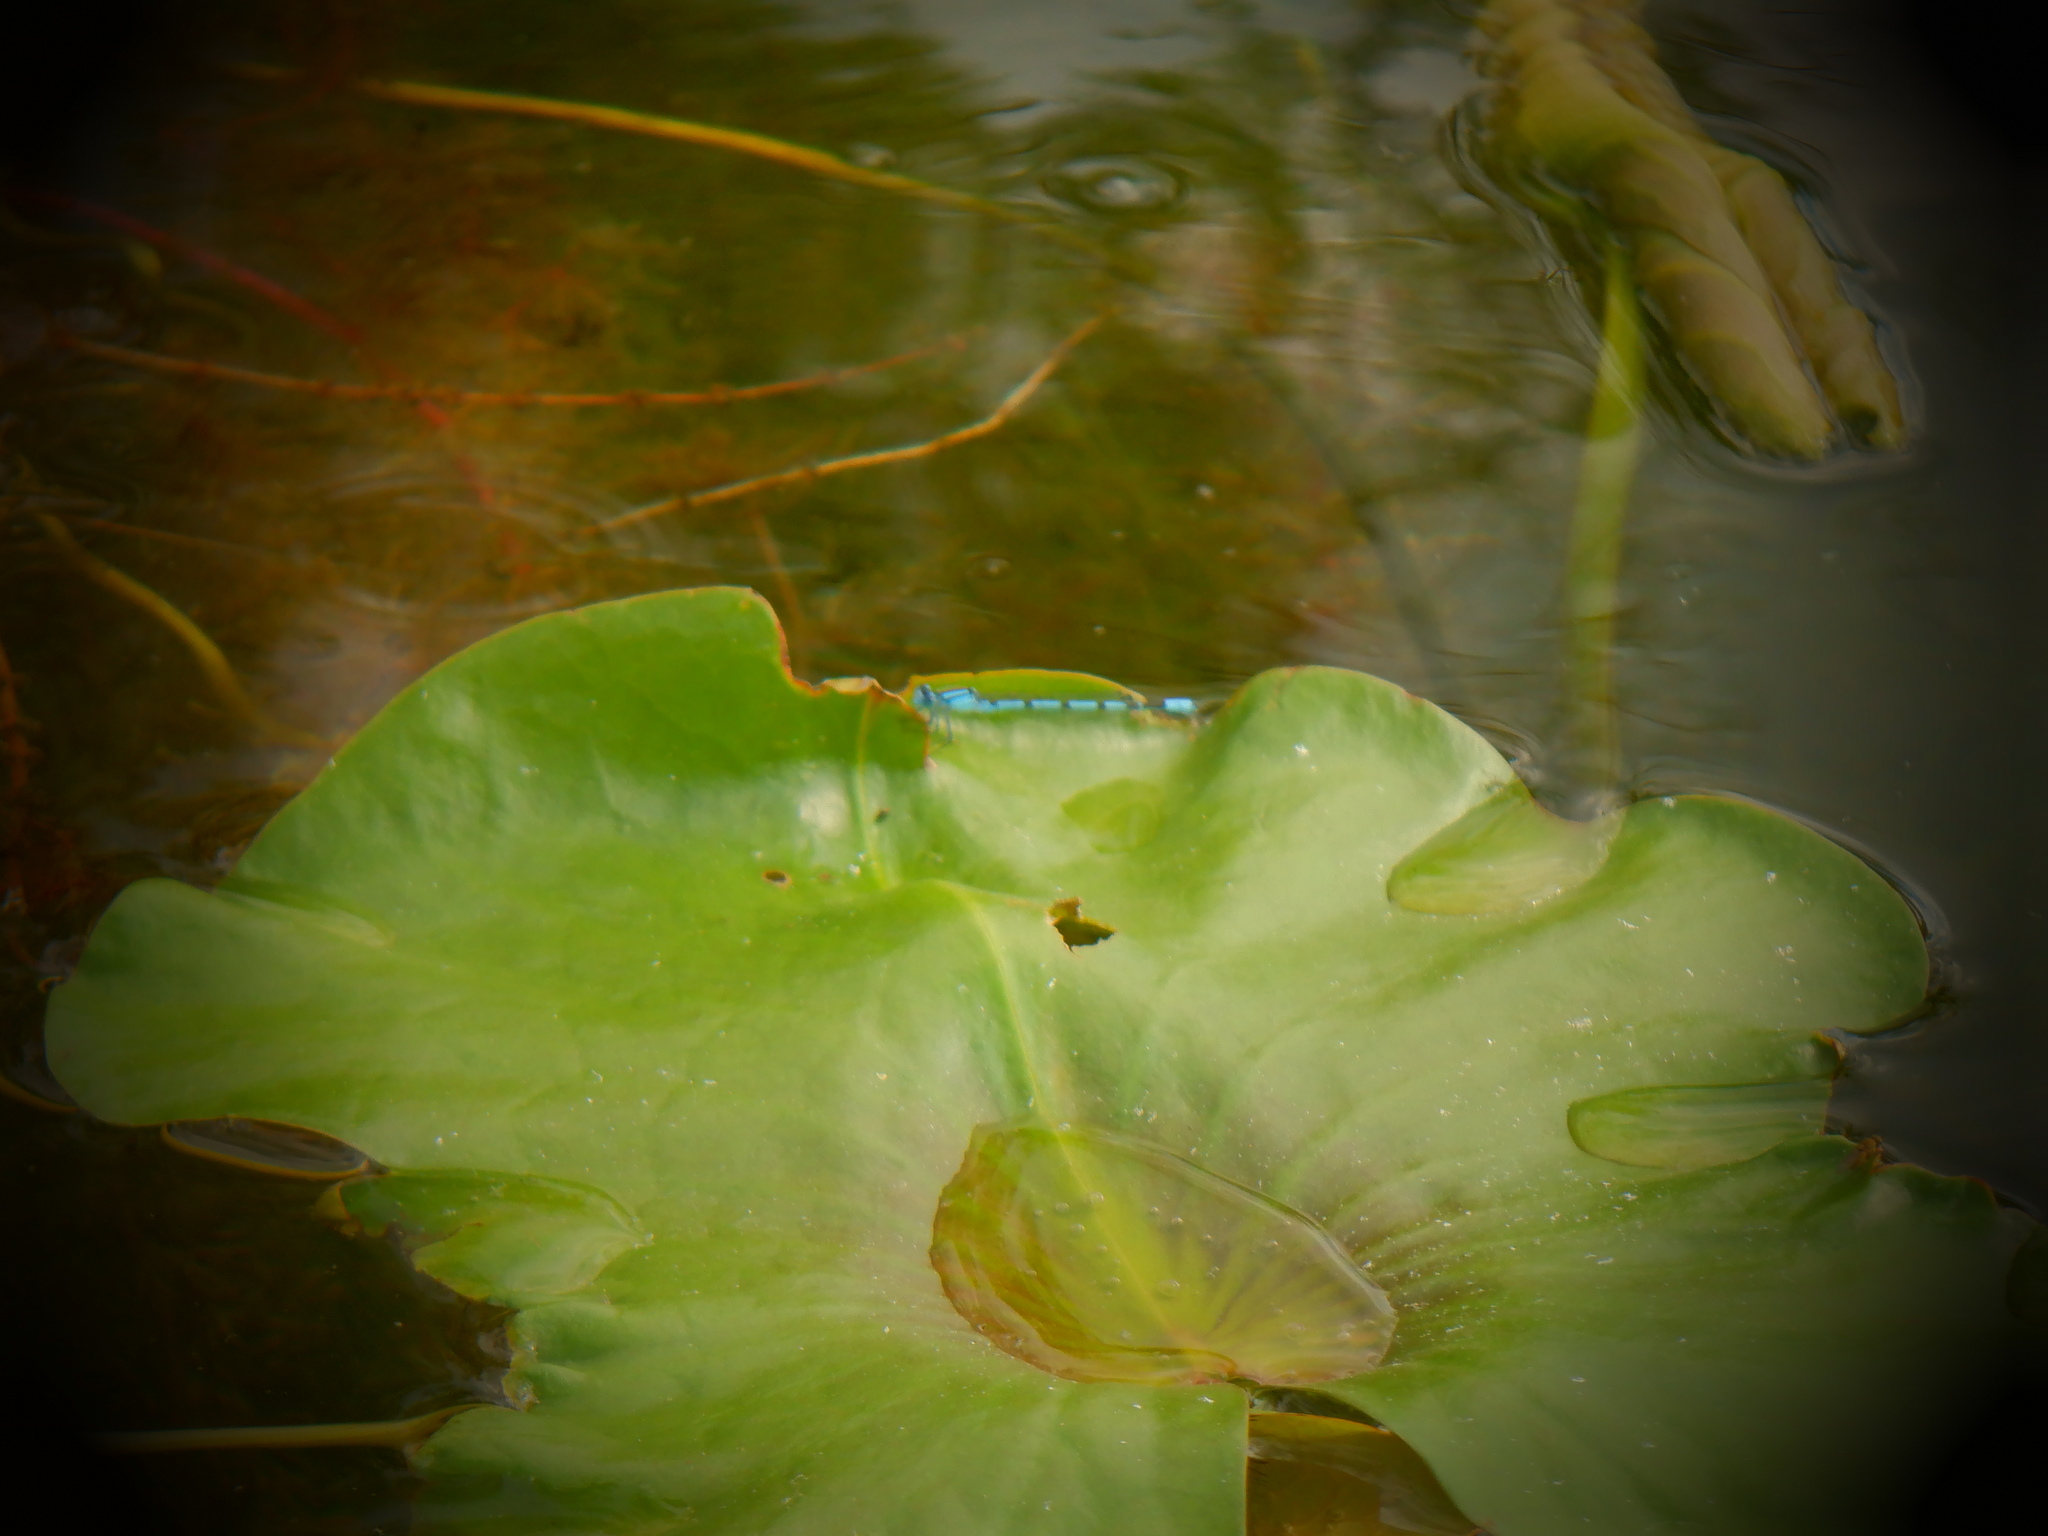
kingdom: Animalia
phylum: Arthropoda
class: Insecta
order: Odonata
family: Coenagrionidae
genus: Enallagma
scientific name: Enallagma
